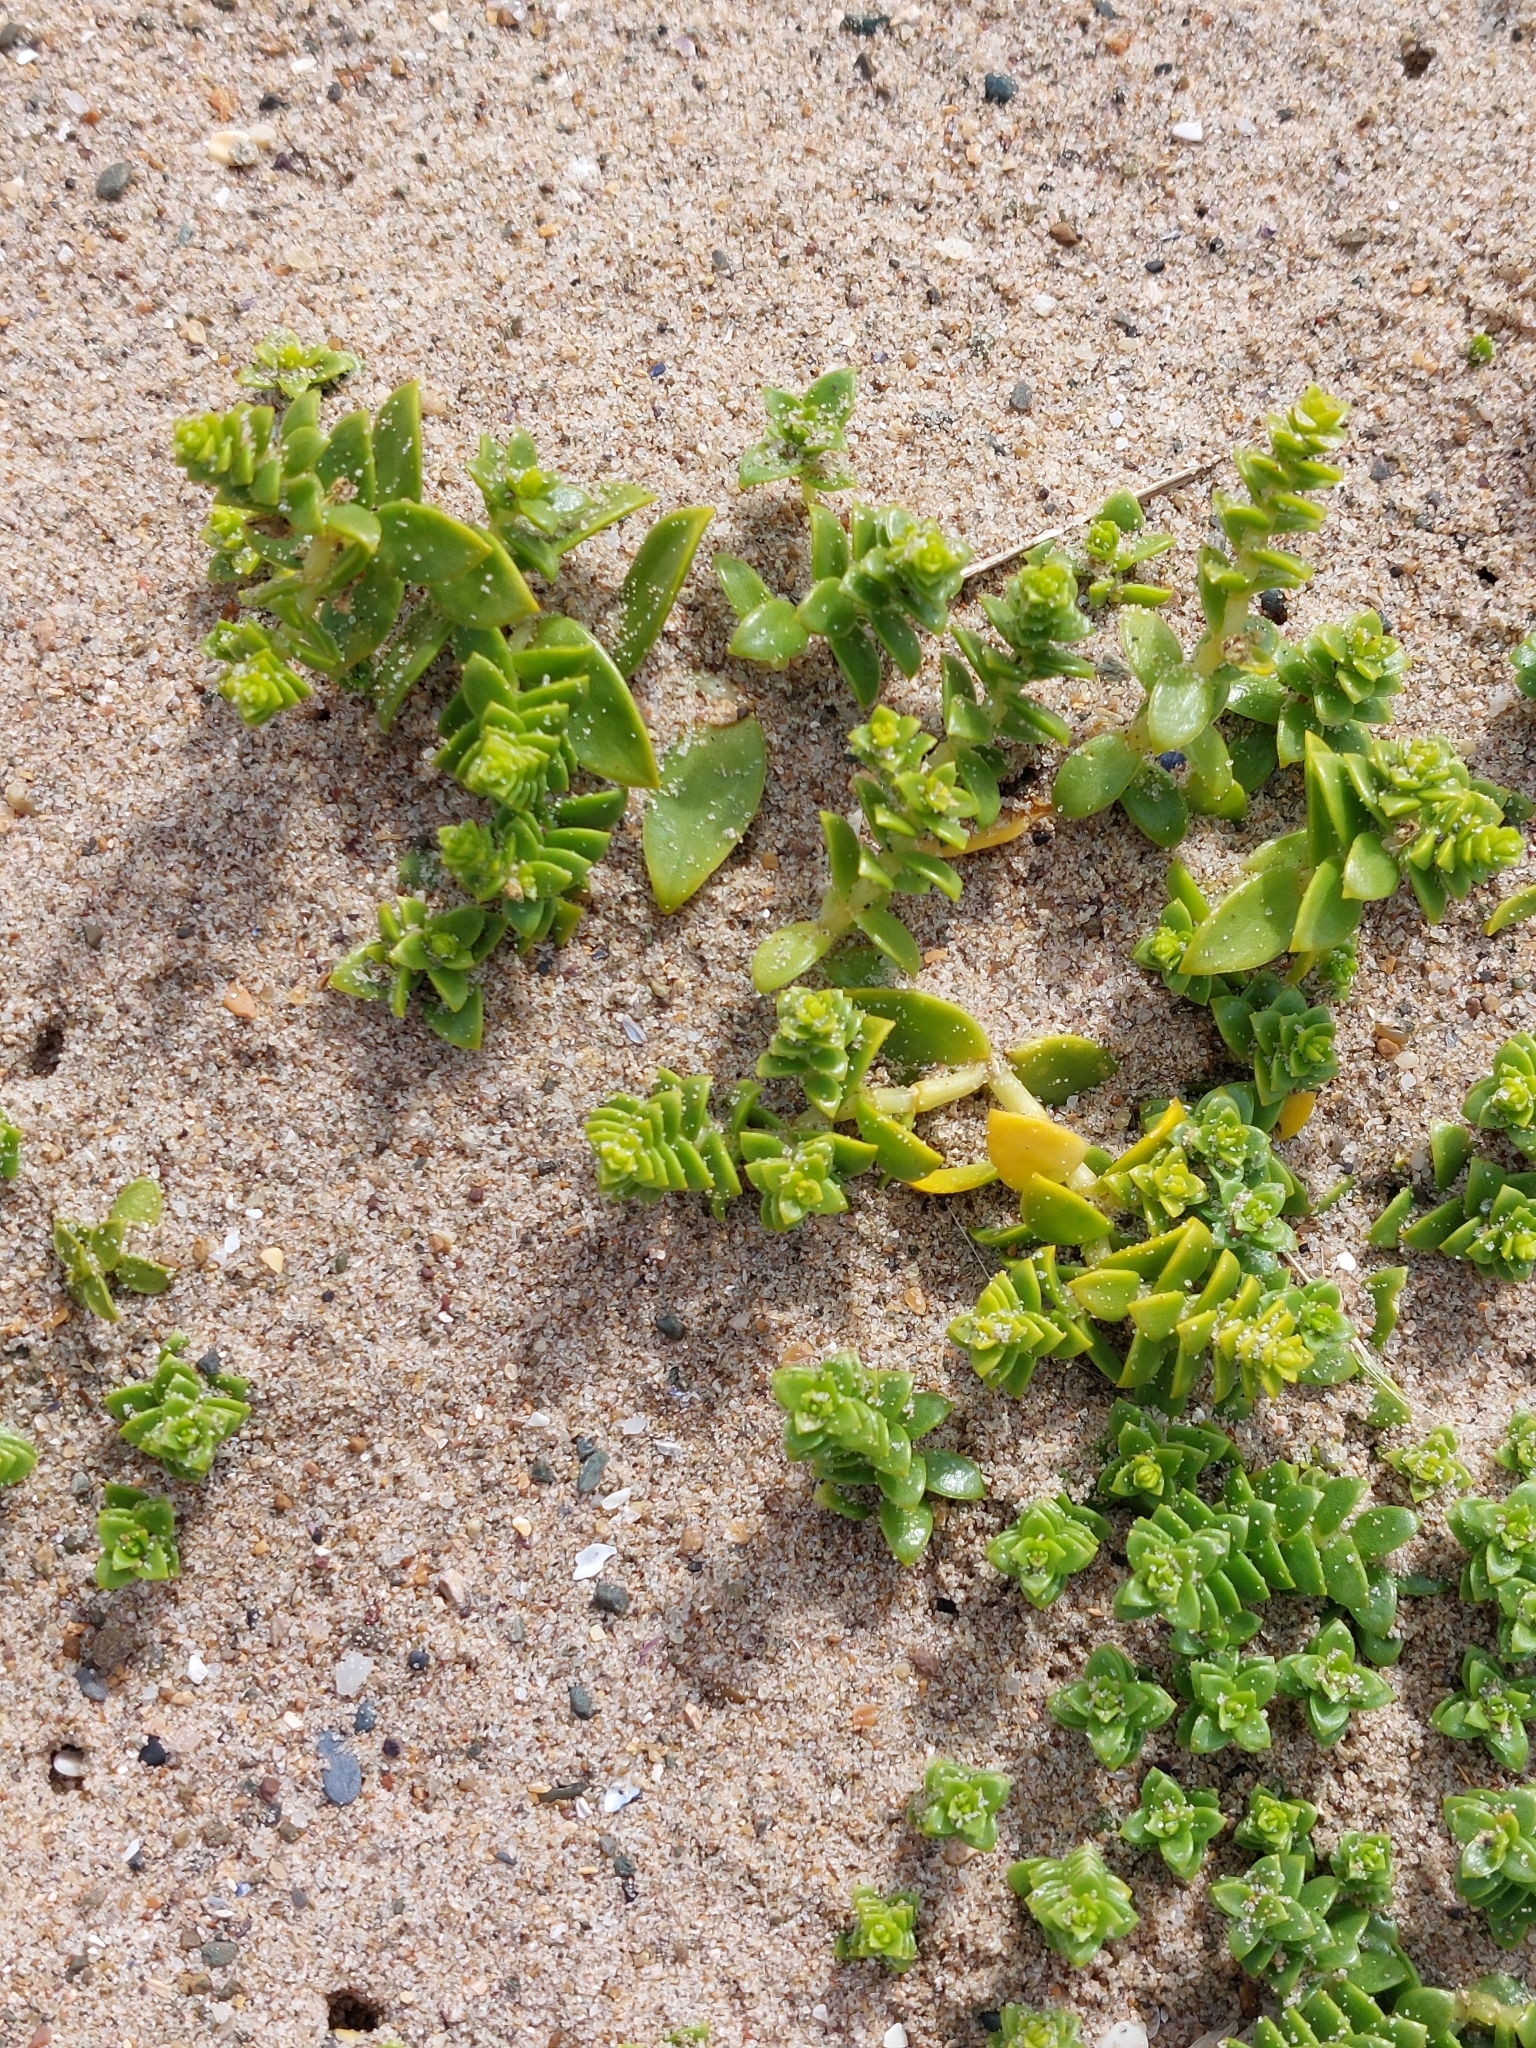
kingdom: Plantae
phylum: Tracheophyta
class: Magnoliopsida
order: Caryophyllales
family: Caryophyllaceae
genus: Honckenya
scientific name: Honckenya peploides
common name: Sea sandwort
